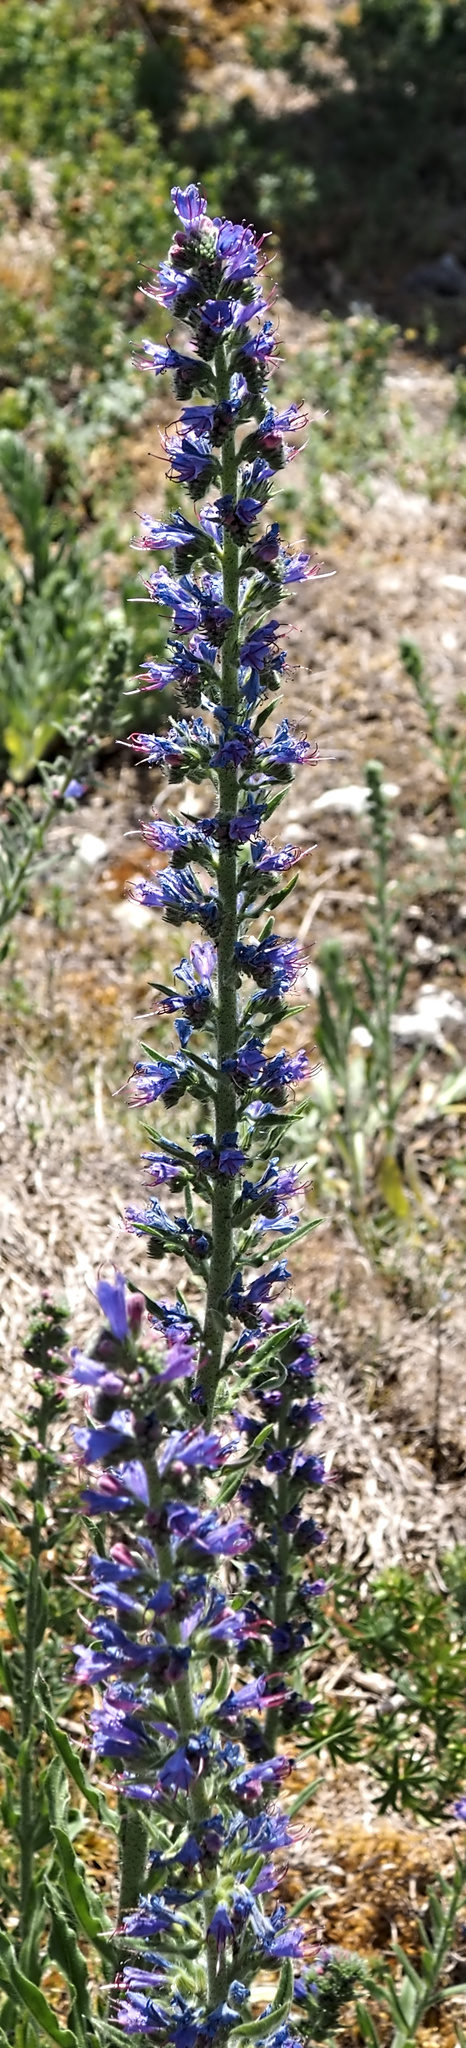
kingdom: Plantae
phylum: Tracheophyta
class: Magnoliopsida
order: Boraginales
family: Boraginaceae
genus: Echium
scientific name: Echium vulgare
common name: Common viper's bugloss
